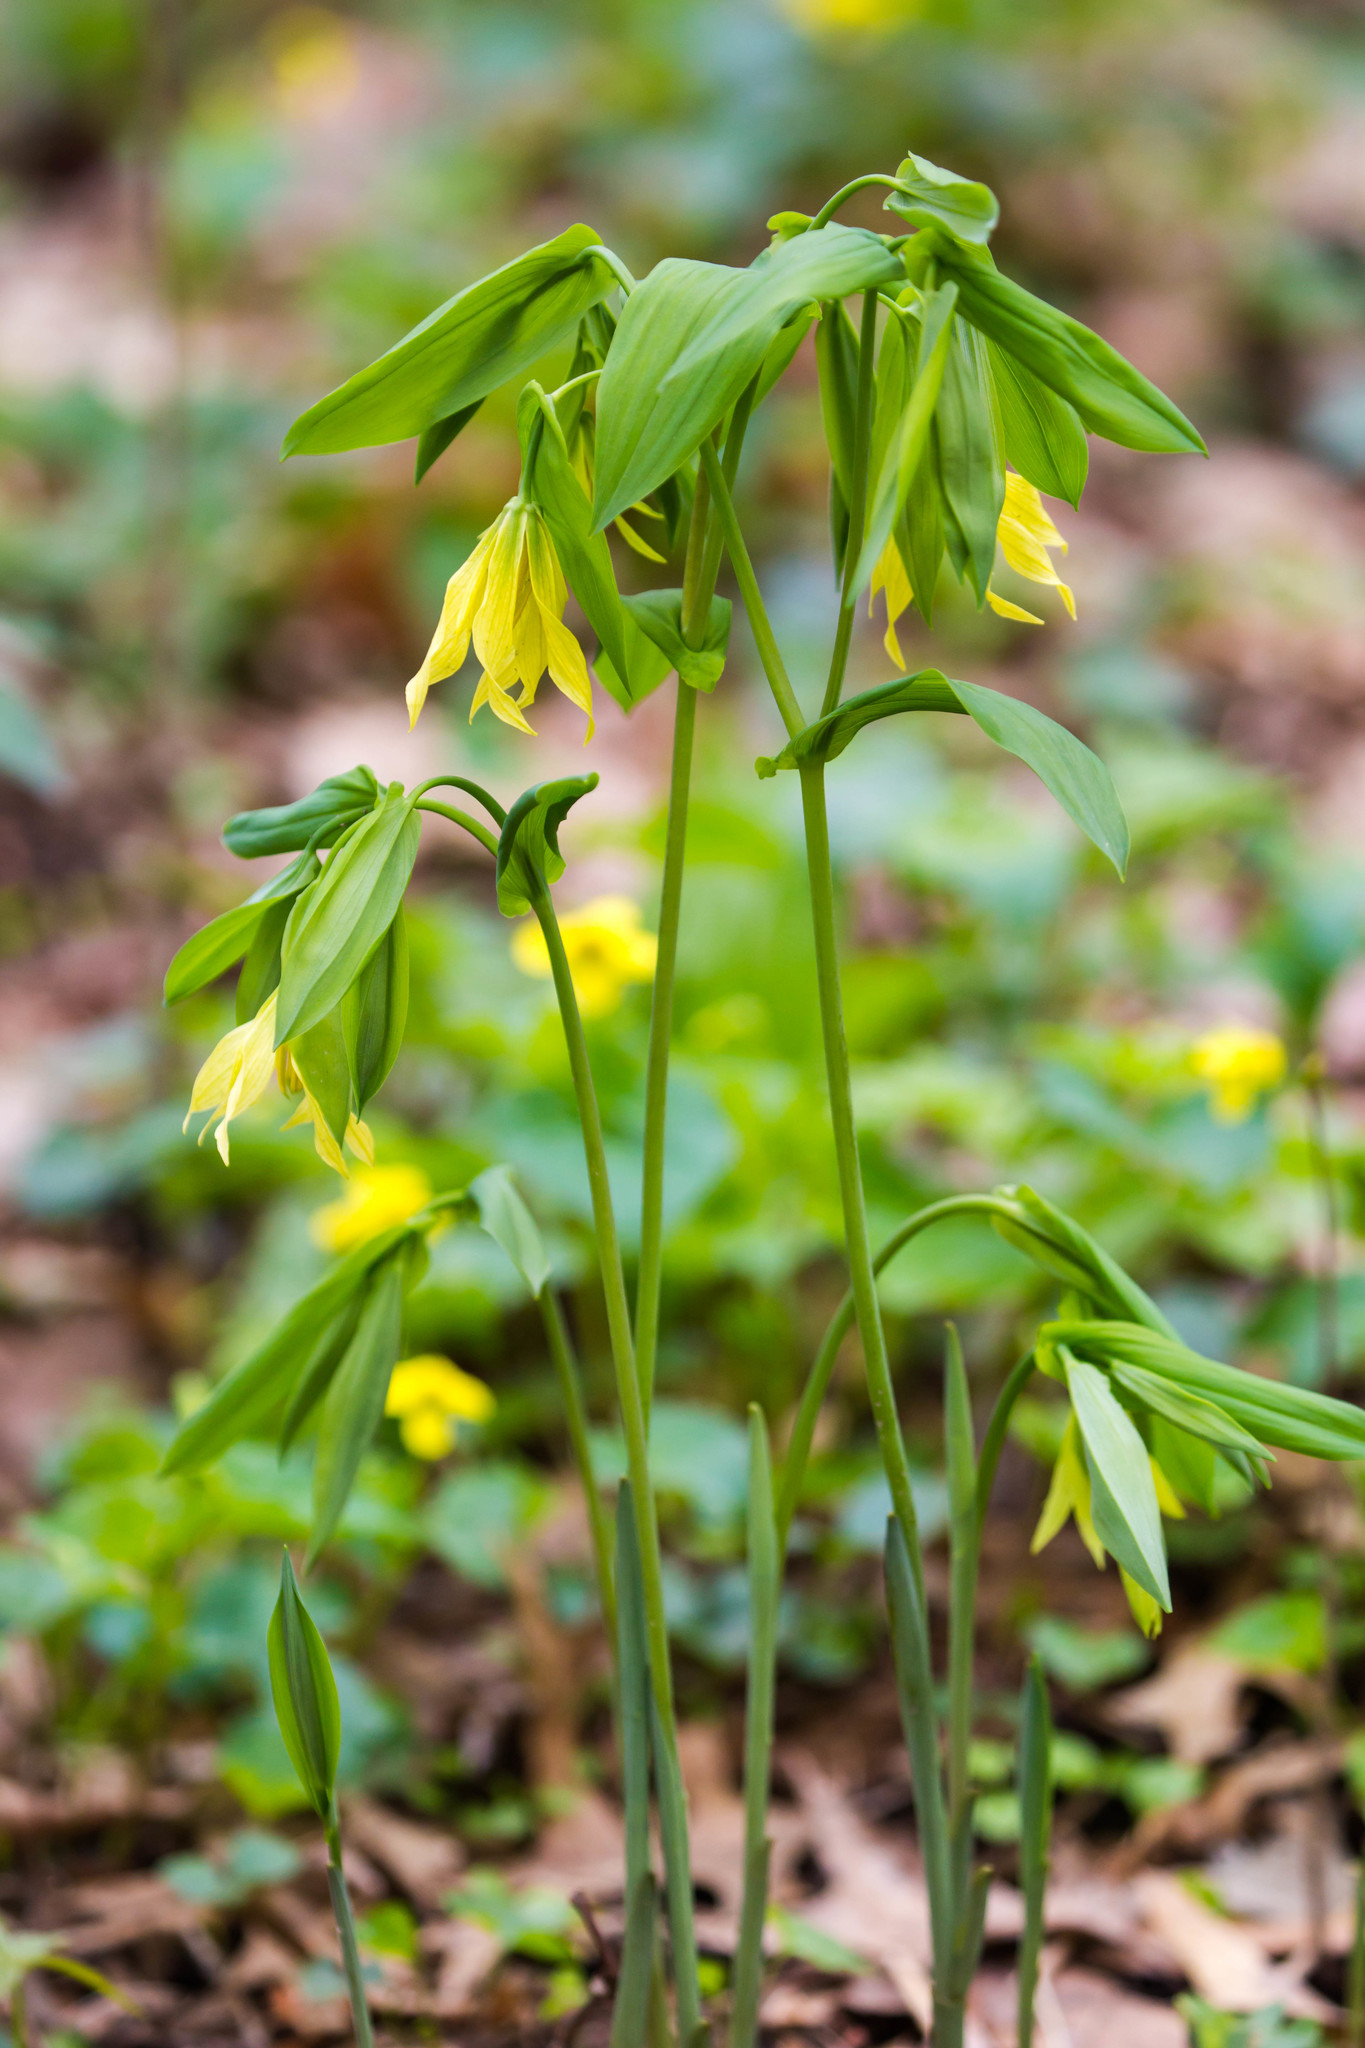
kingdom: Plantae
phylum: Tracheophyta
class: Liliopsida
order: Liliales
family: Colchicaceae
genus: Uvularia
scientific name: Uvularia grandiflora
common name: Bellwort
